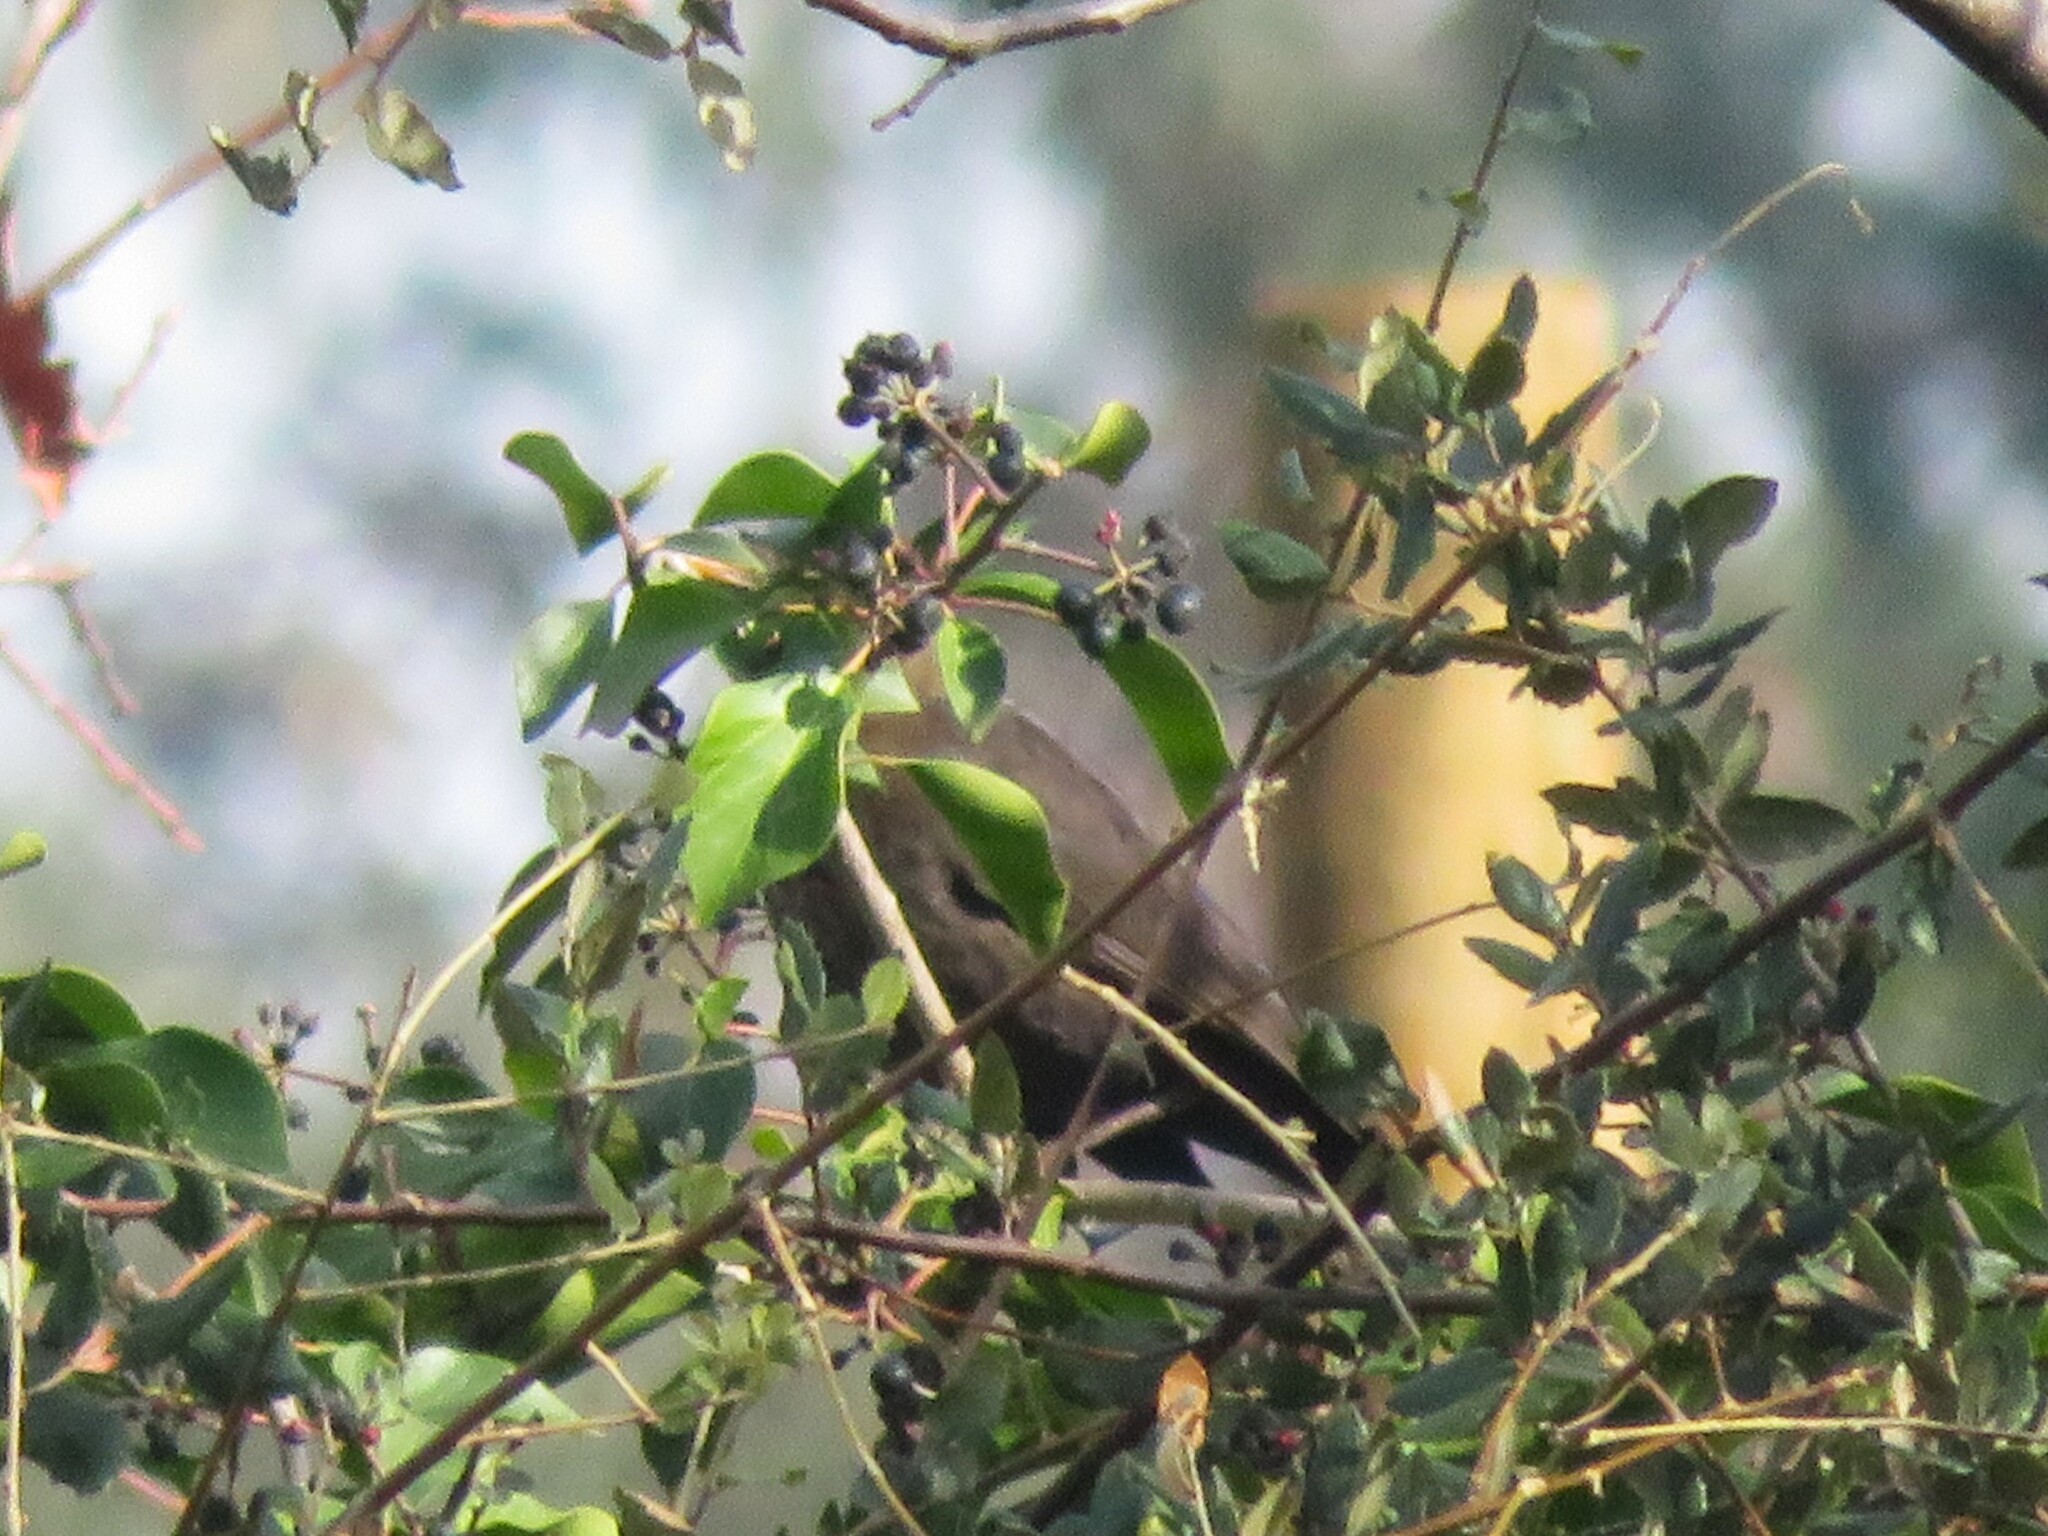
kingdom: Animalia
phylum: Chordata
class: Aves
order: Passeriformes
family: Turdidae
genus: Turdus
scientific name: Turdus merula
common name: Common blackbird
